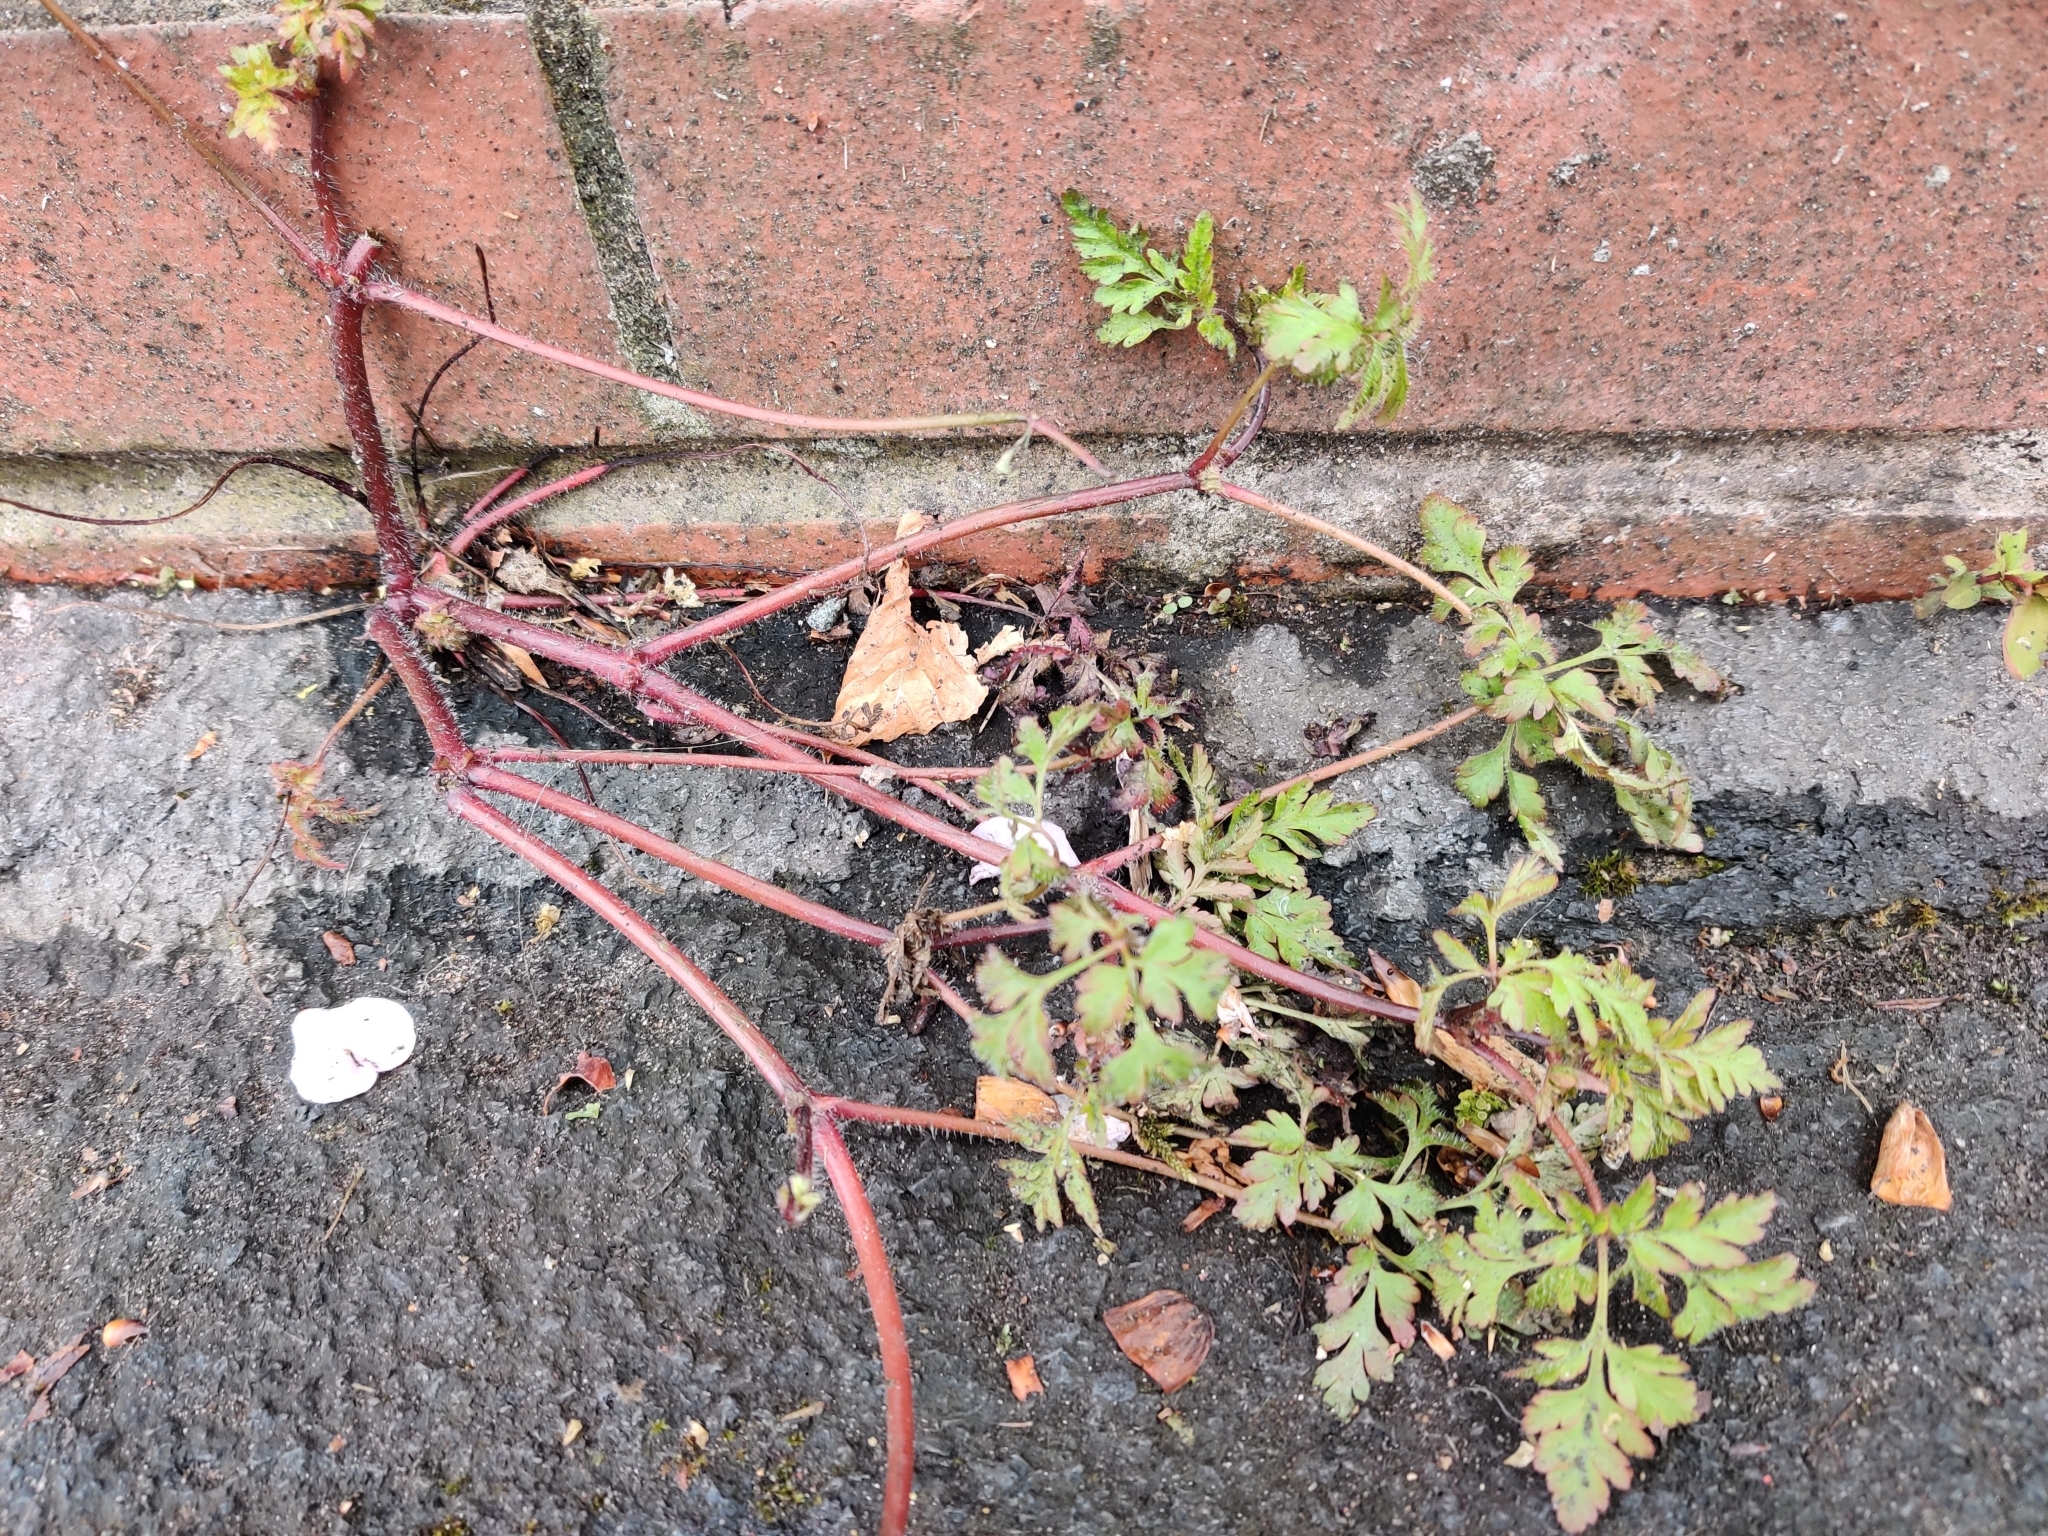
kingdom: Plantae
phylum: Tracheophyta
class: Magnoliopsida
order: Geraniales
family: Geraniaceae
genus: Geranium
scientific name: Geranium robertianum
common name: Herb-robert
